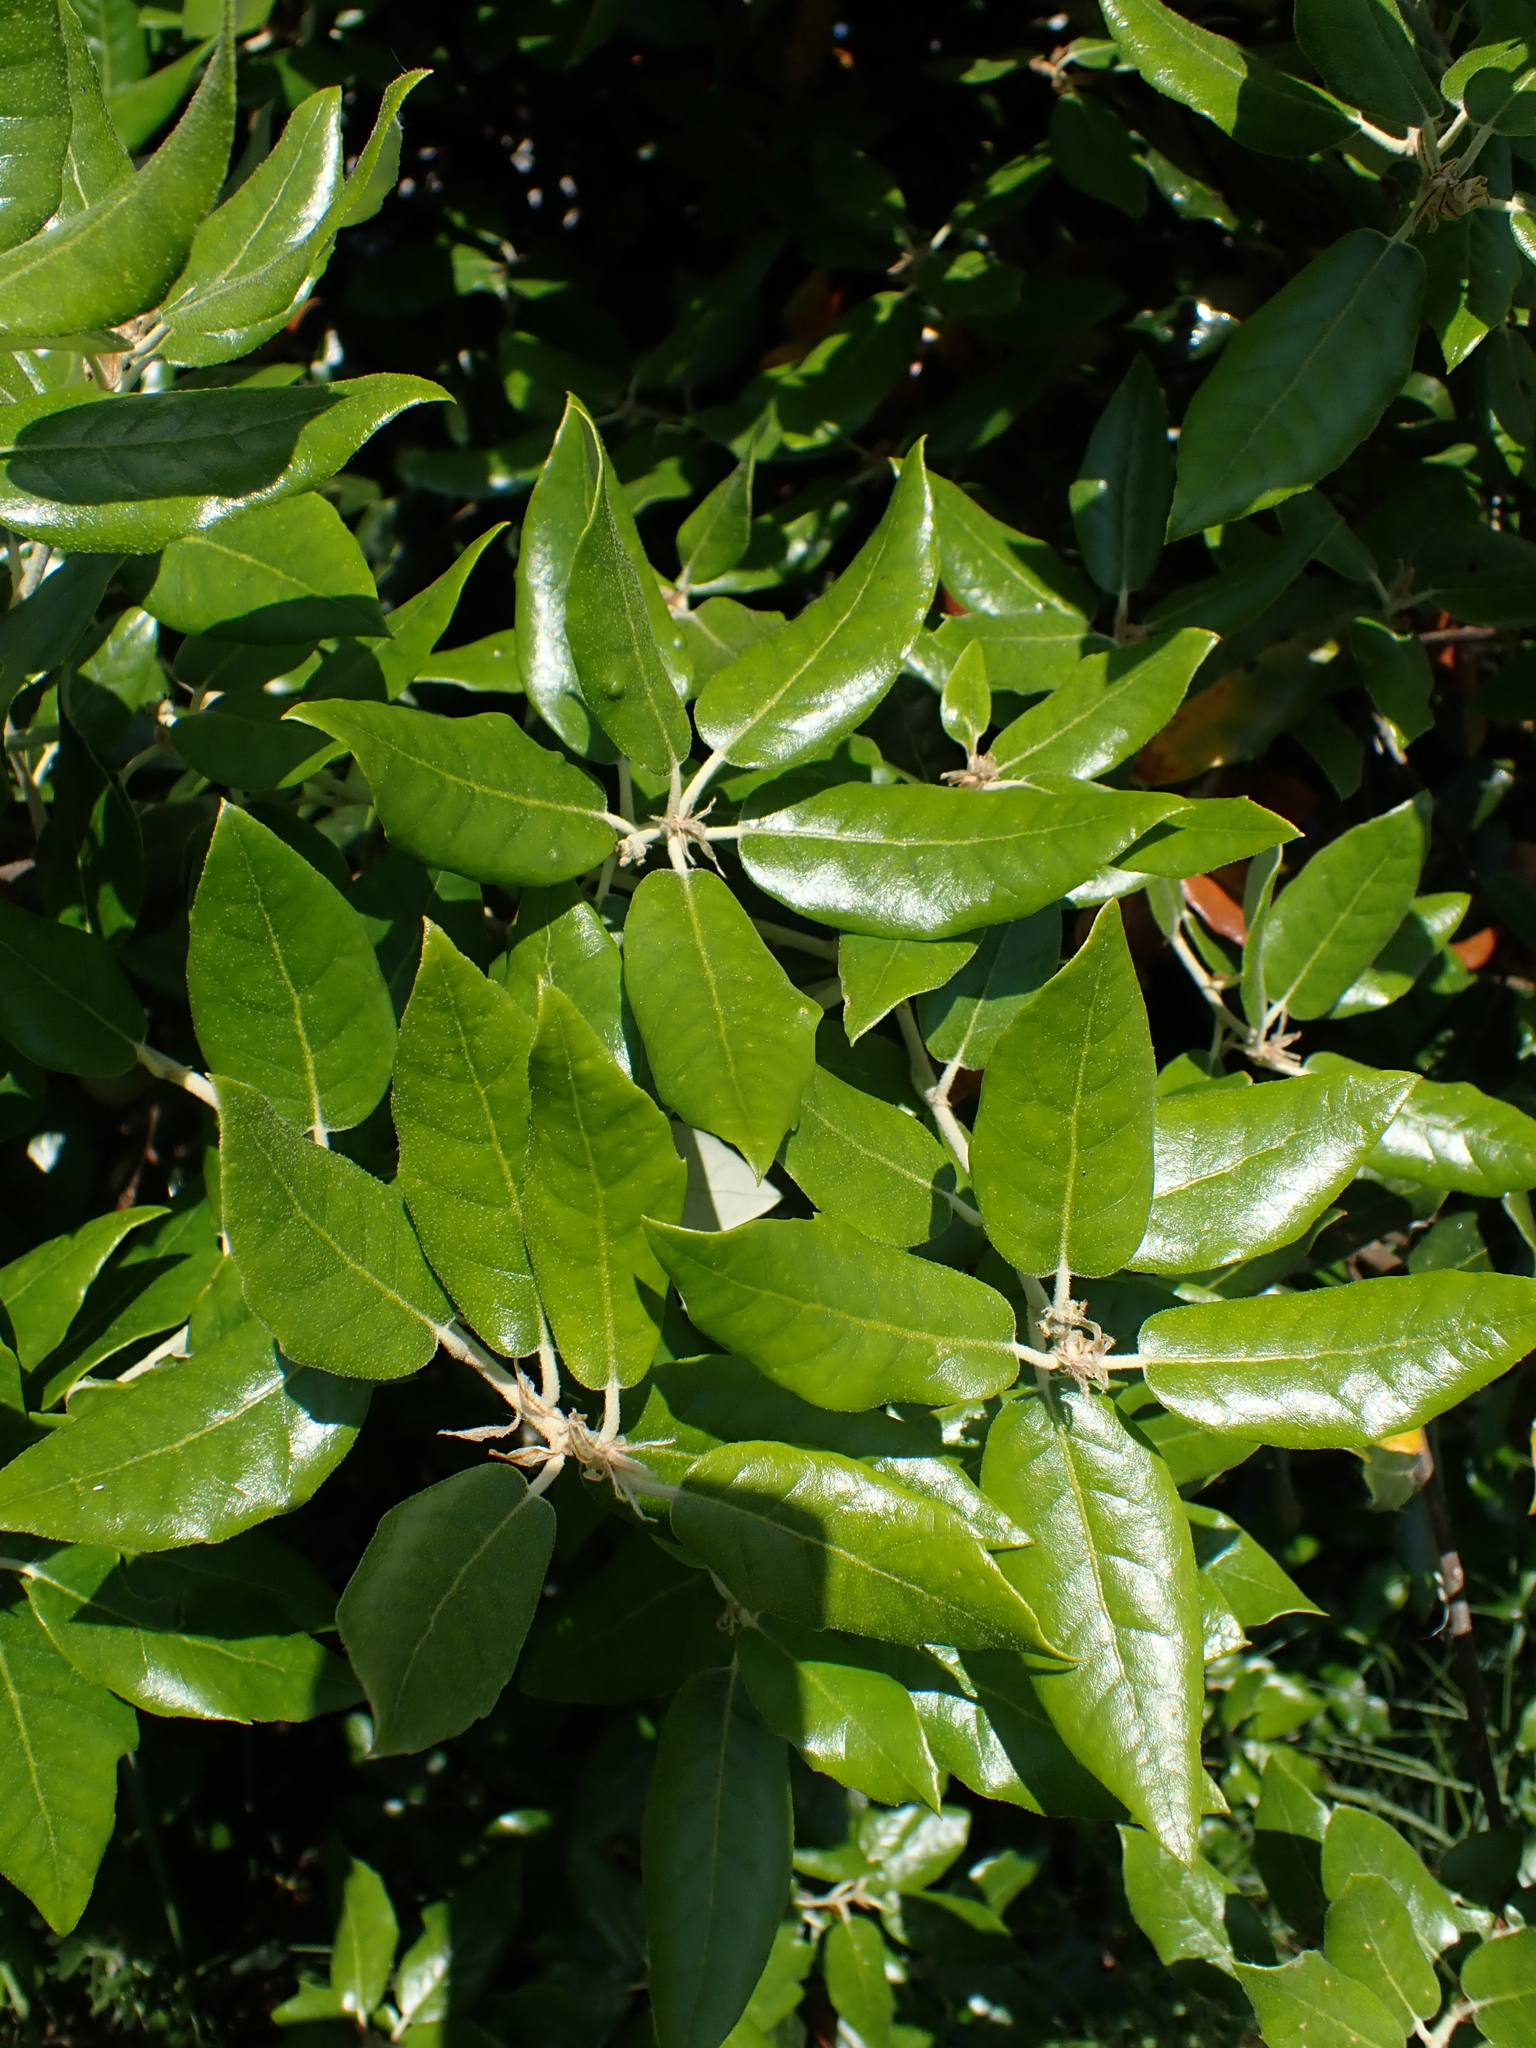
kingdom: Plantae
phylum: Tracheophyta
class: Magnoliopsida
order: Fagales
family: Fagaceae
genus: Quercus
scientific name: Quercus ilex
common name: Evergreen oak
